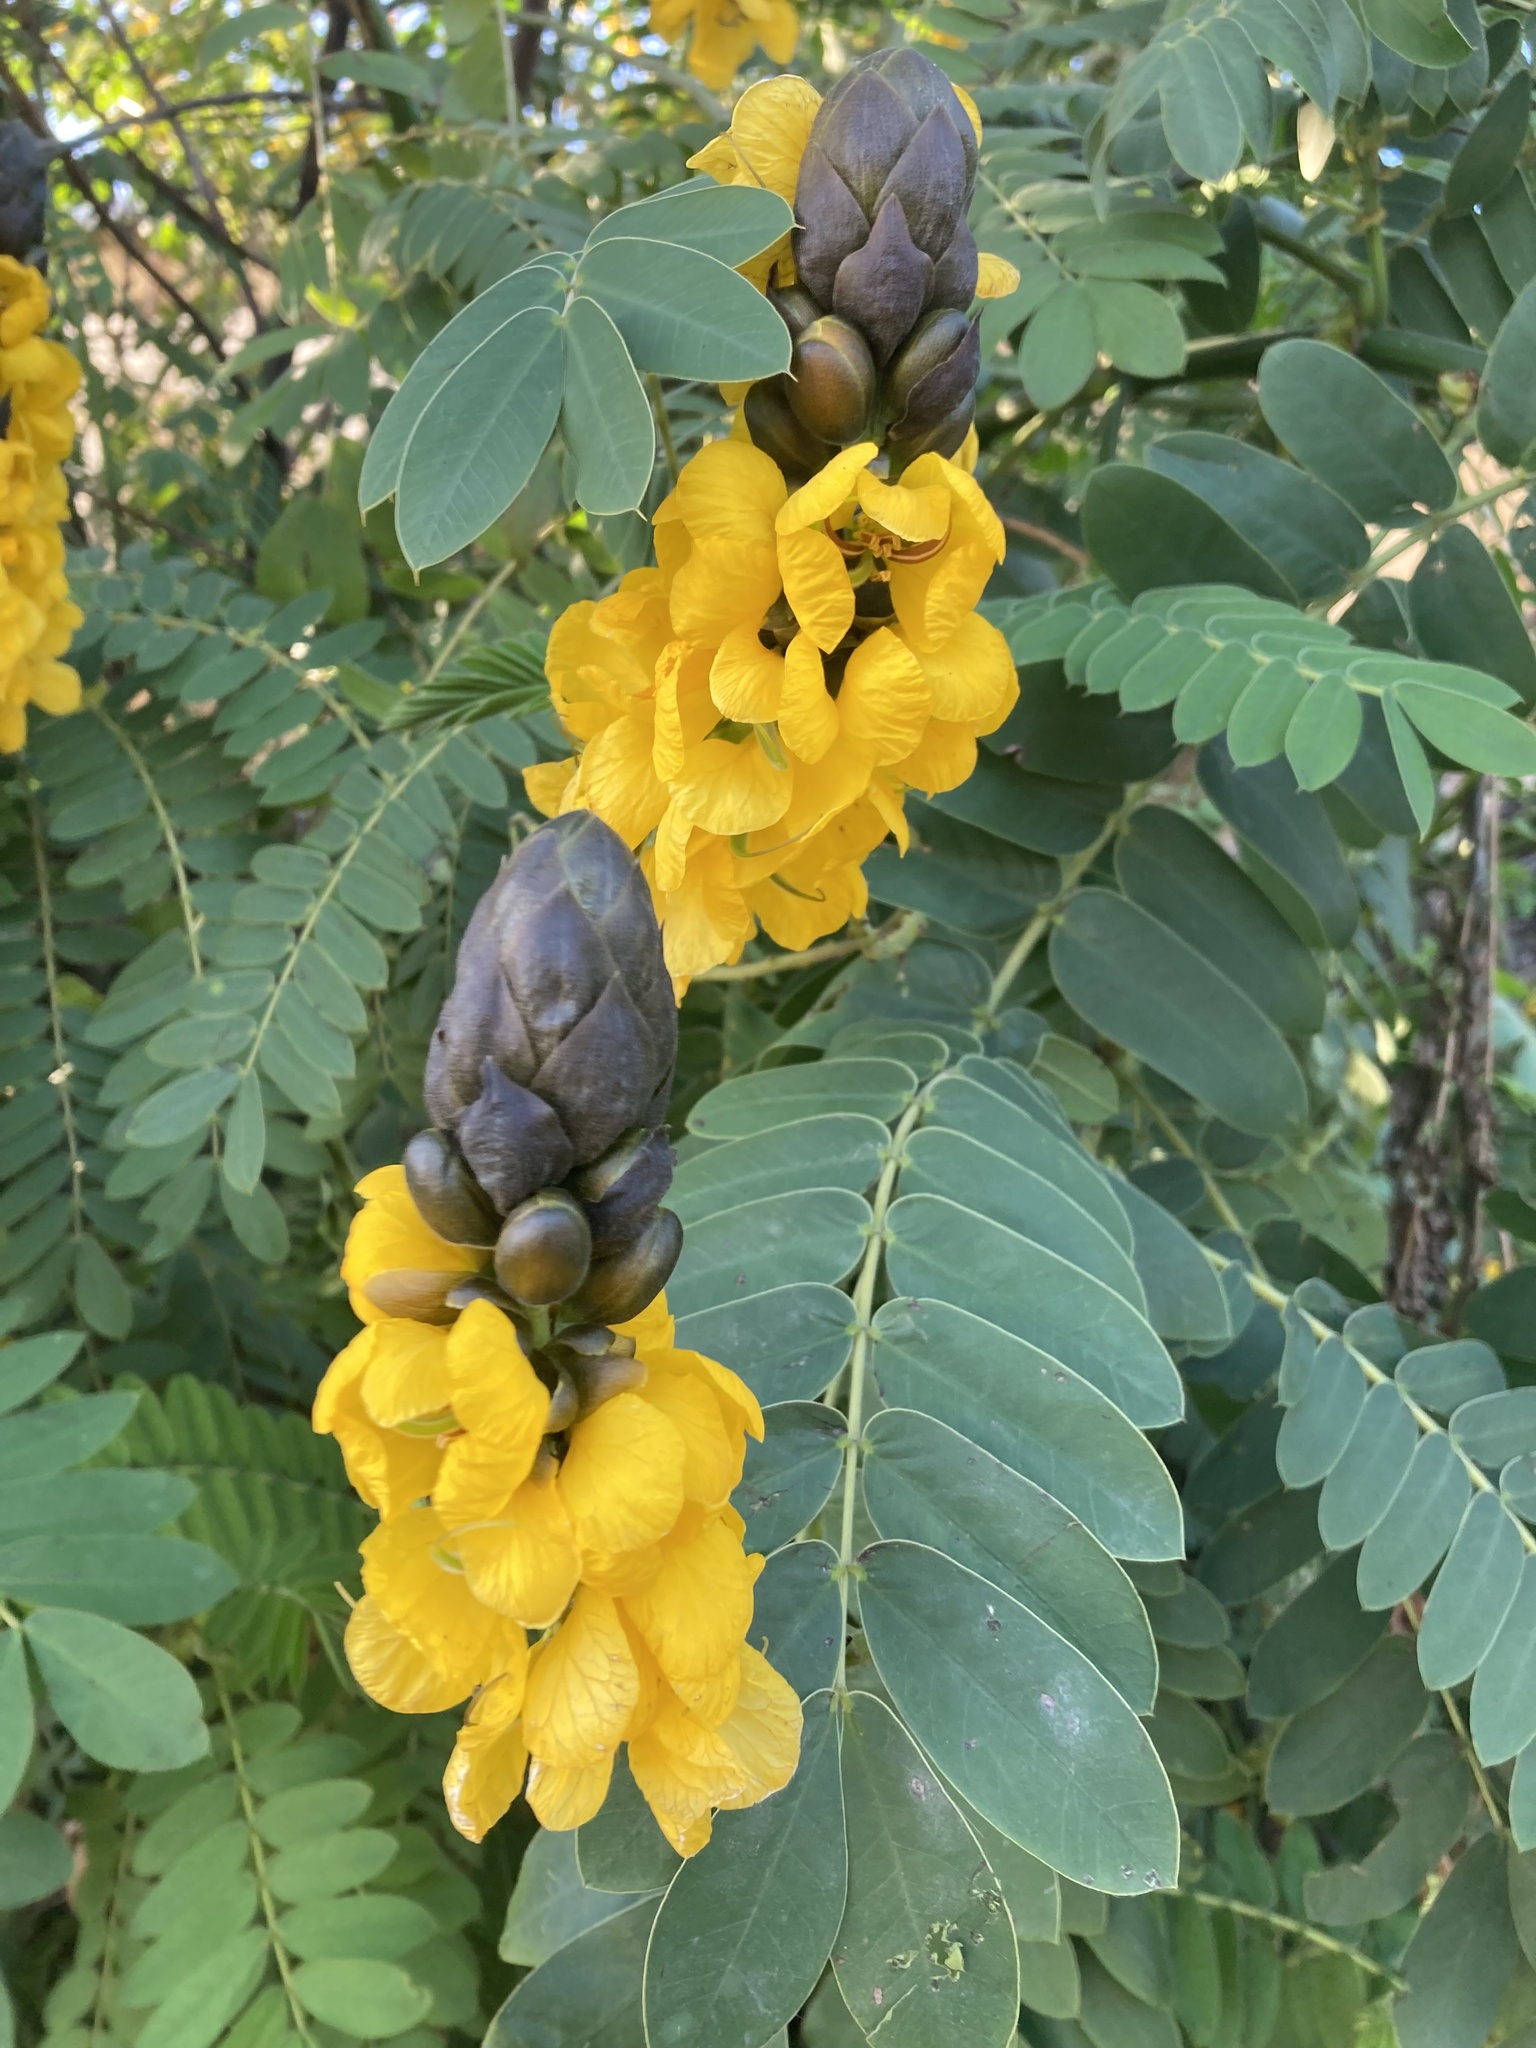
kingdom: Plantae
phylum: Tracheophyta
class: Magnoliopsida
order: Fabales
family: Fabaceae
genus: Senna
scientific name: Senna didymobotrya
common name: African senna
